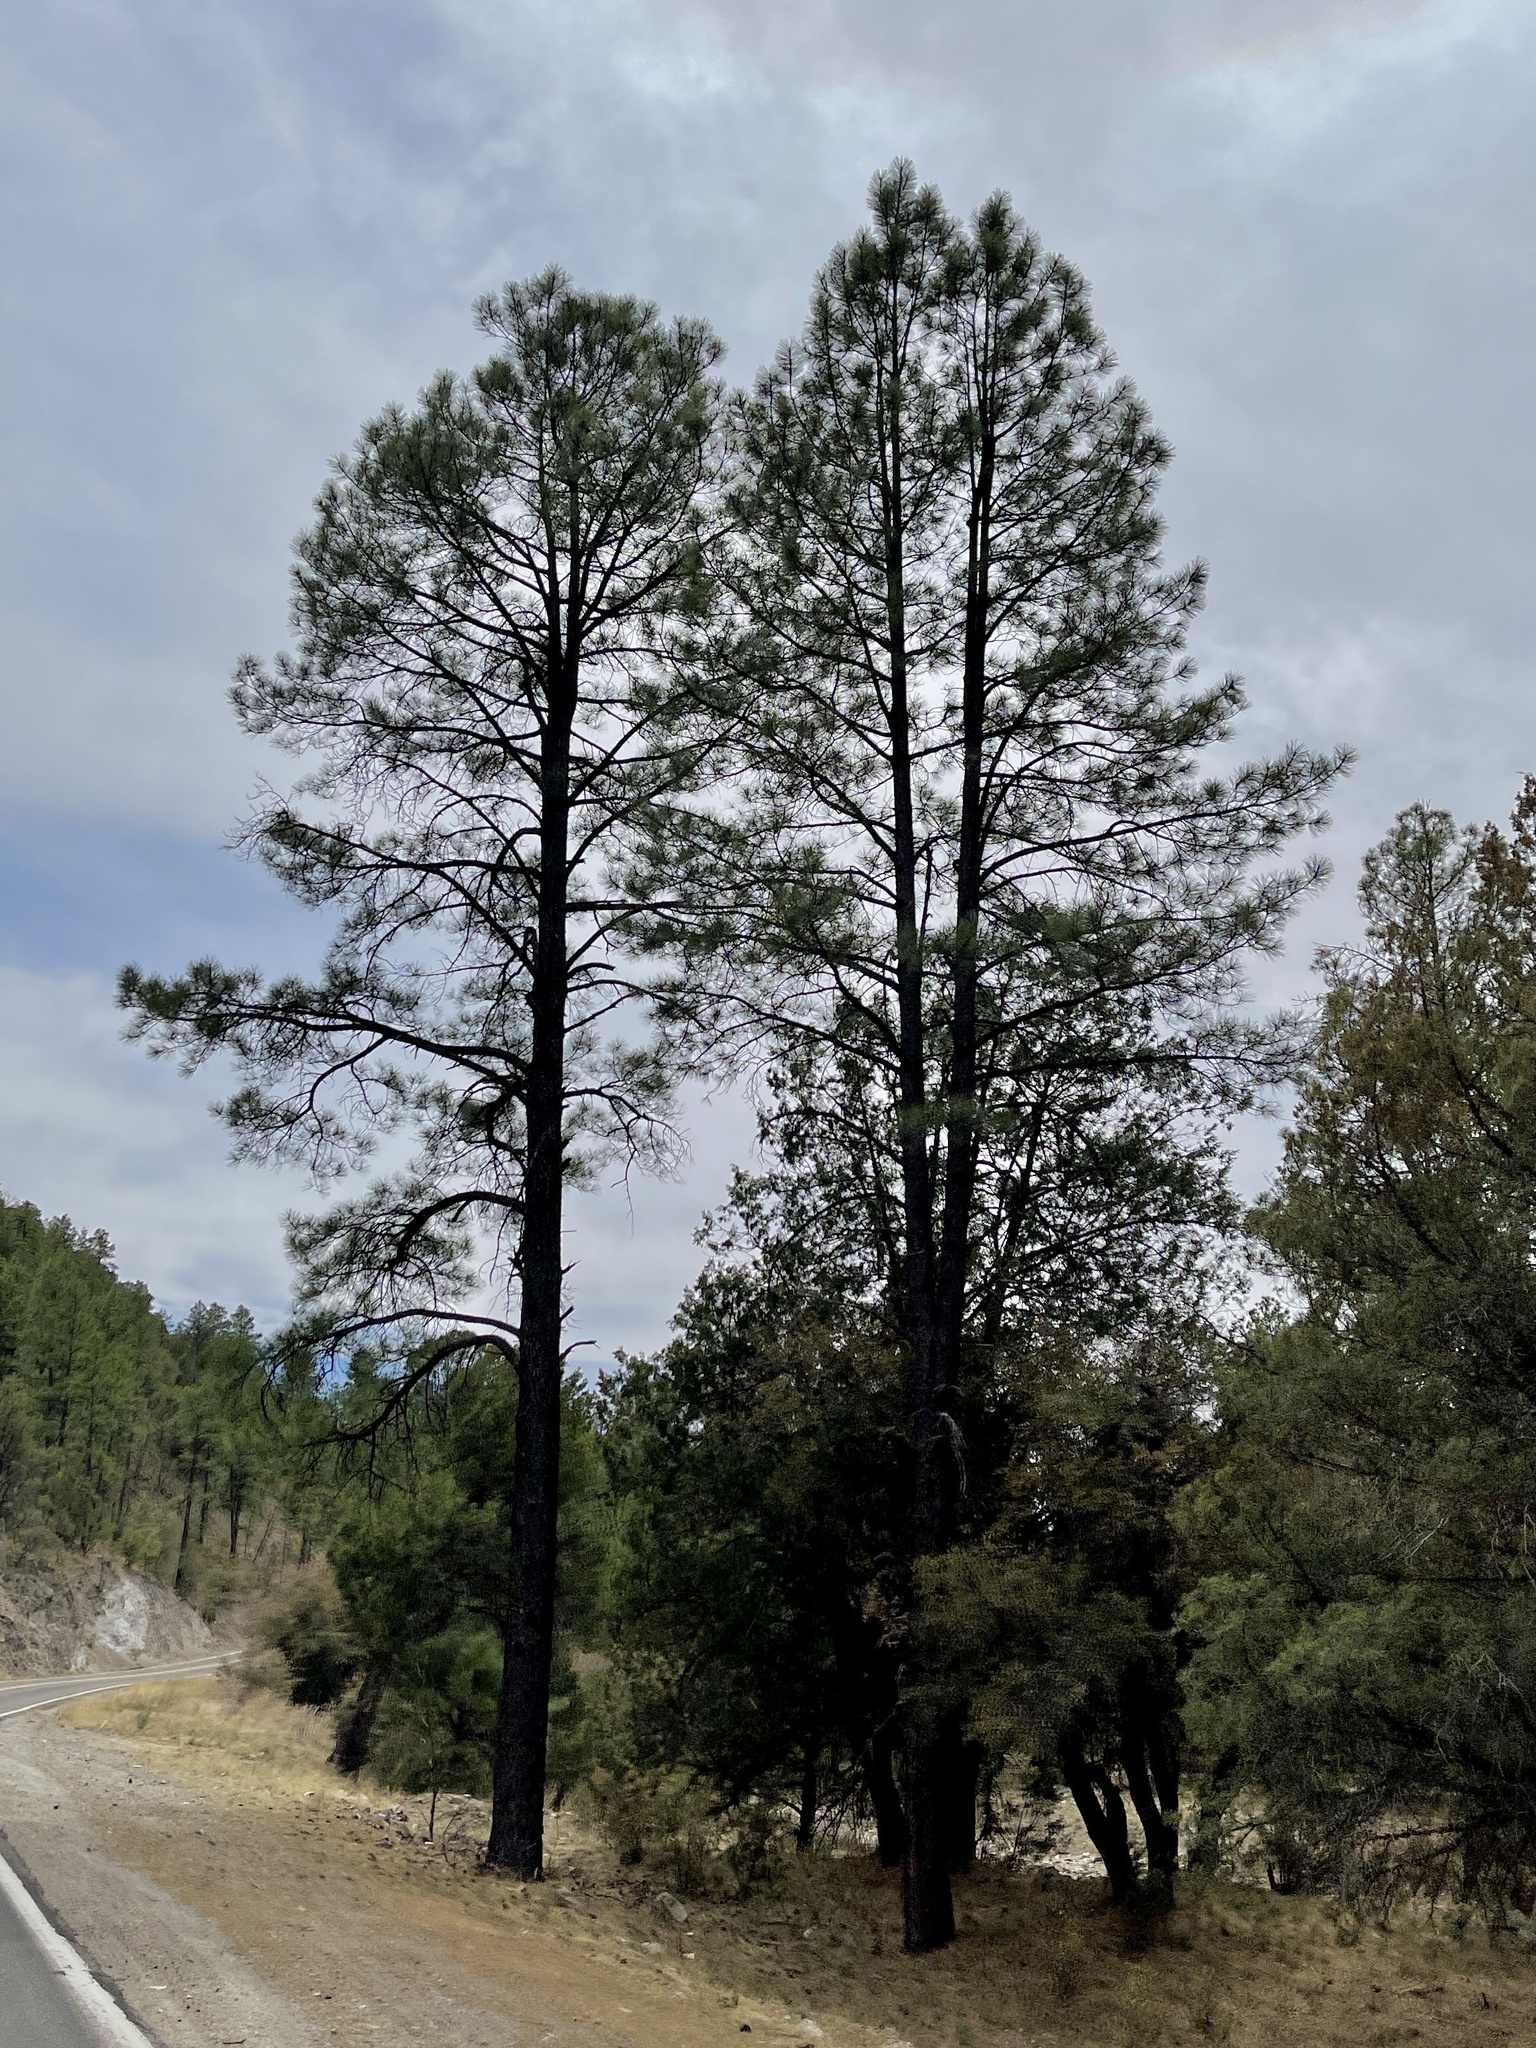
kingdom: Plantae
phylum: Tracheophyta
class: Pinopsida
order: Pinales
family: Pinaceae
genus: Pinus
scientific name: Pinus ponderosa
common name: Western yellow-pine
